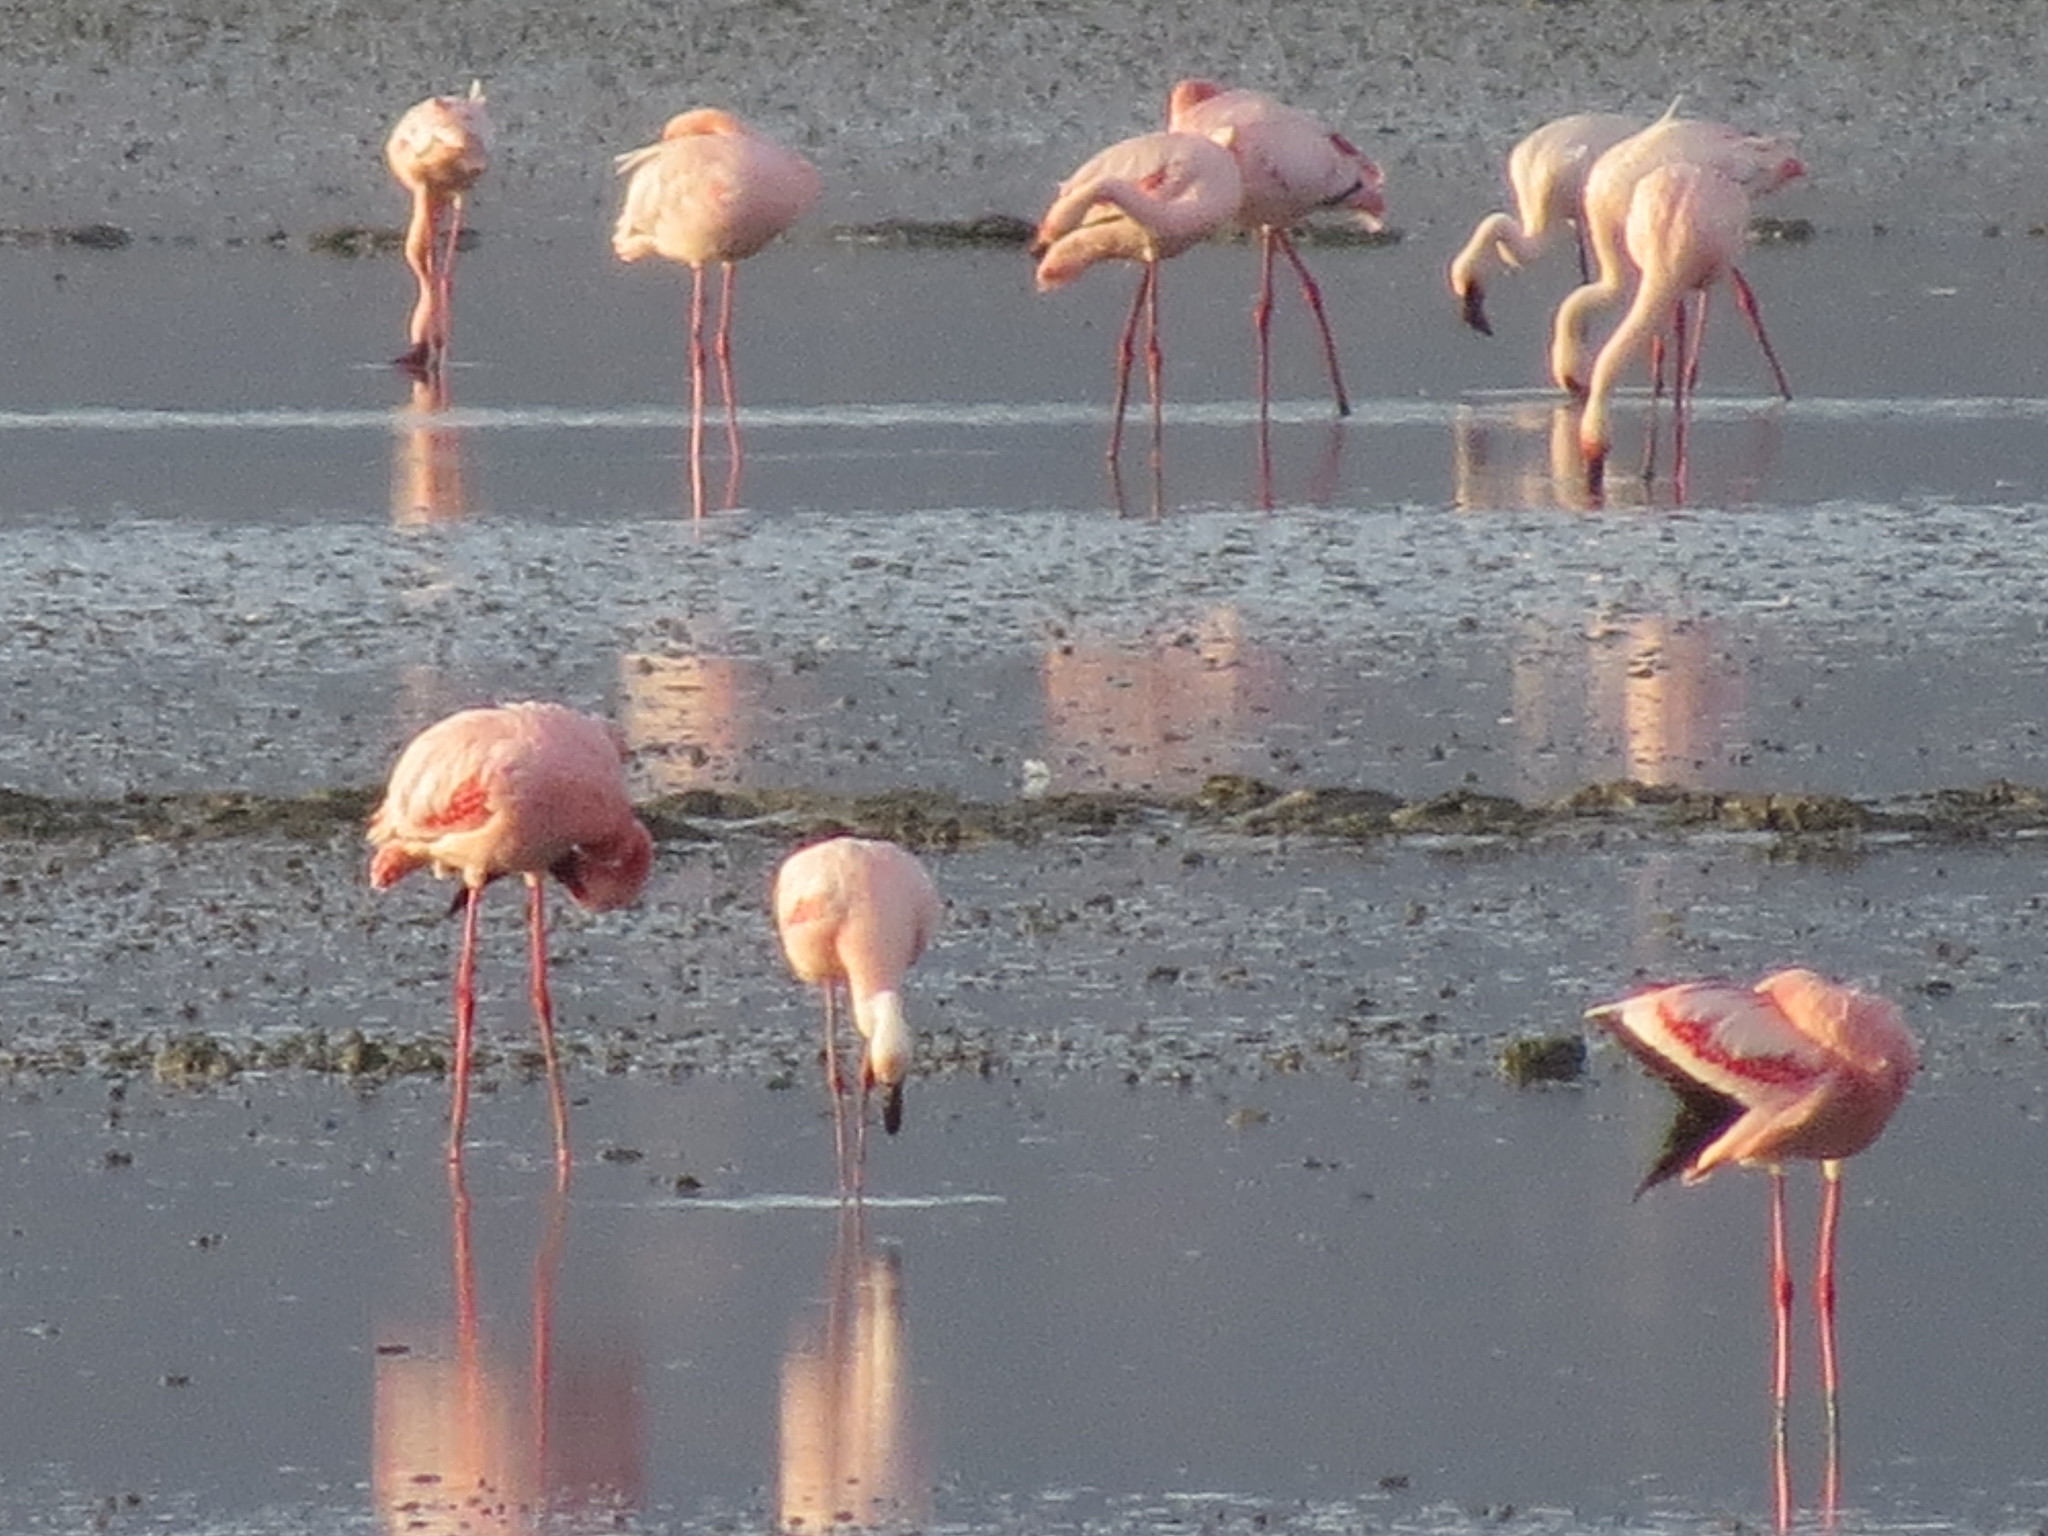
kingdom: Animalia
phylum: Chordata
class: Aves
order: Phoenicopteriformes
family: Phoenicopteridae
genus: Phoeniconaias
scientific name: Phoeniconaias minor
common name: Lesser flamingo
